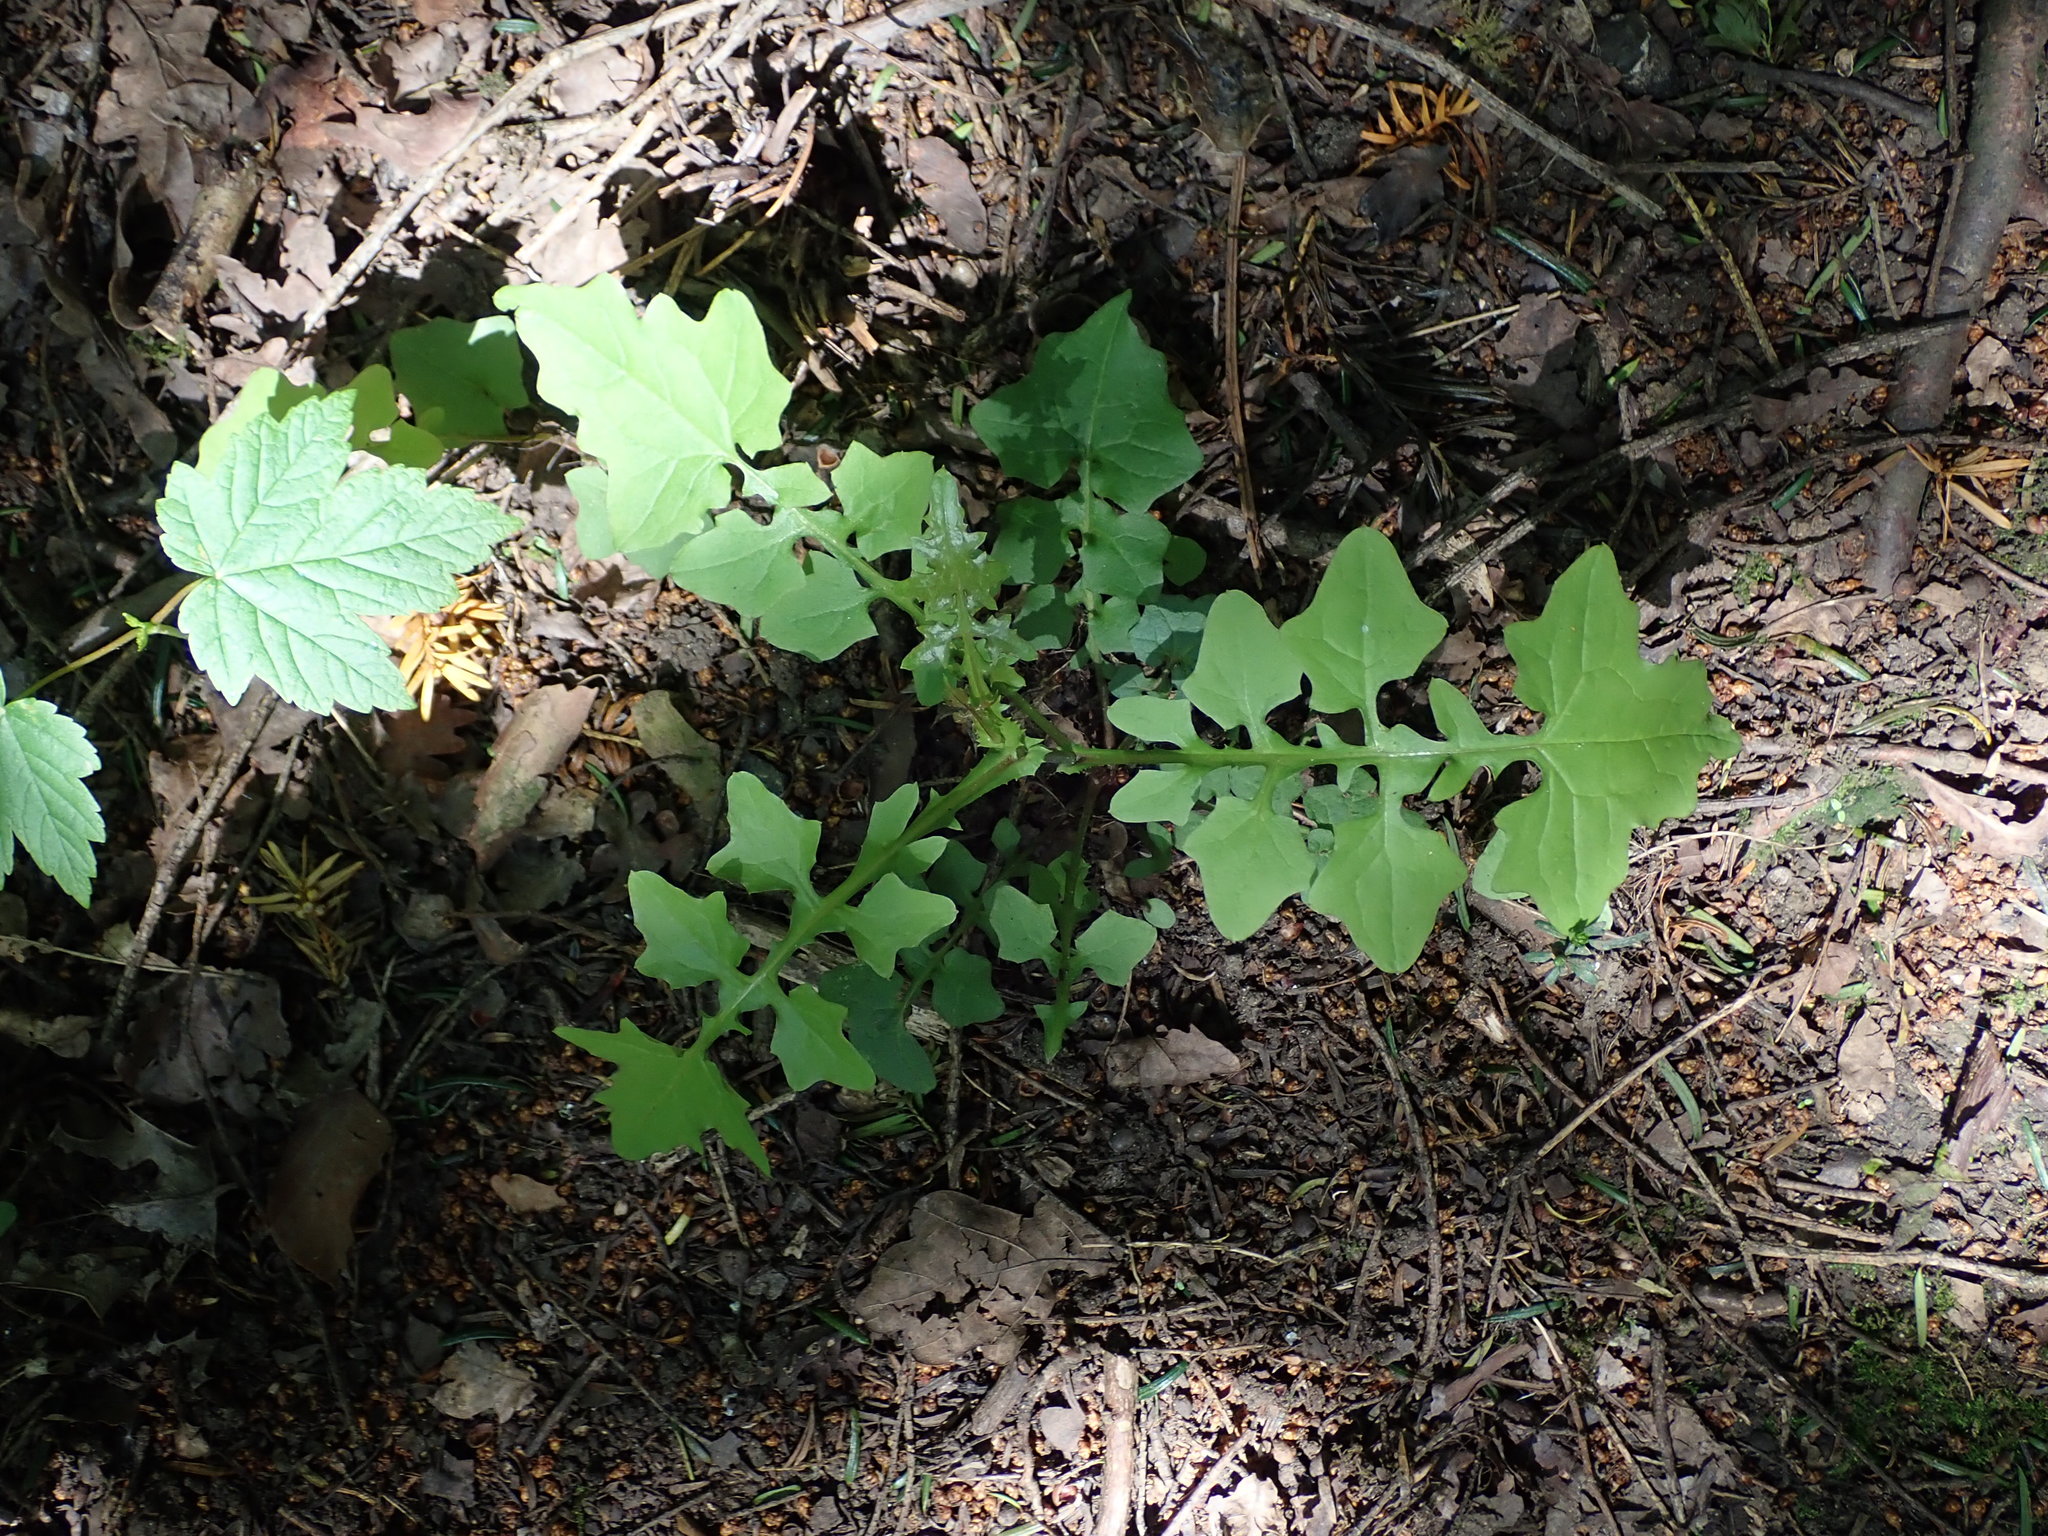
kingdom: Plantae
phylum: Tracheophyta
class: Magnoliopsida
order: Asterales
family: Asteraceae
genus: Mycelis
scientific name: Mycelis muralis
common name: Wall lettuce
